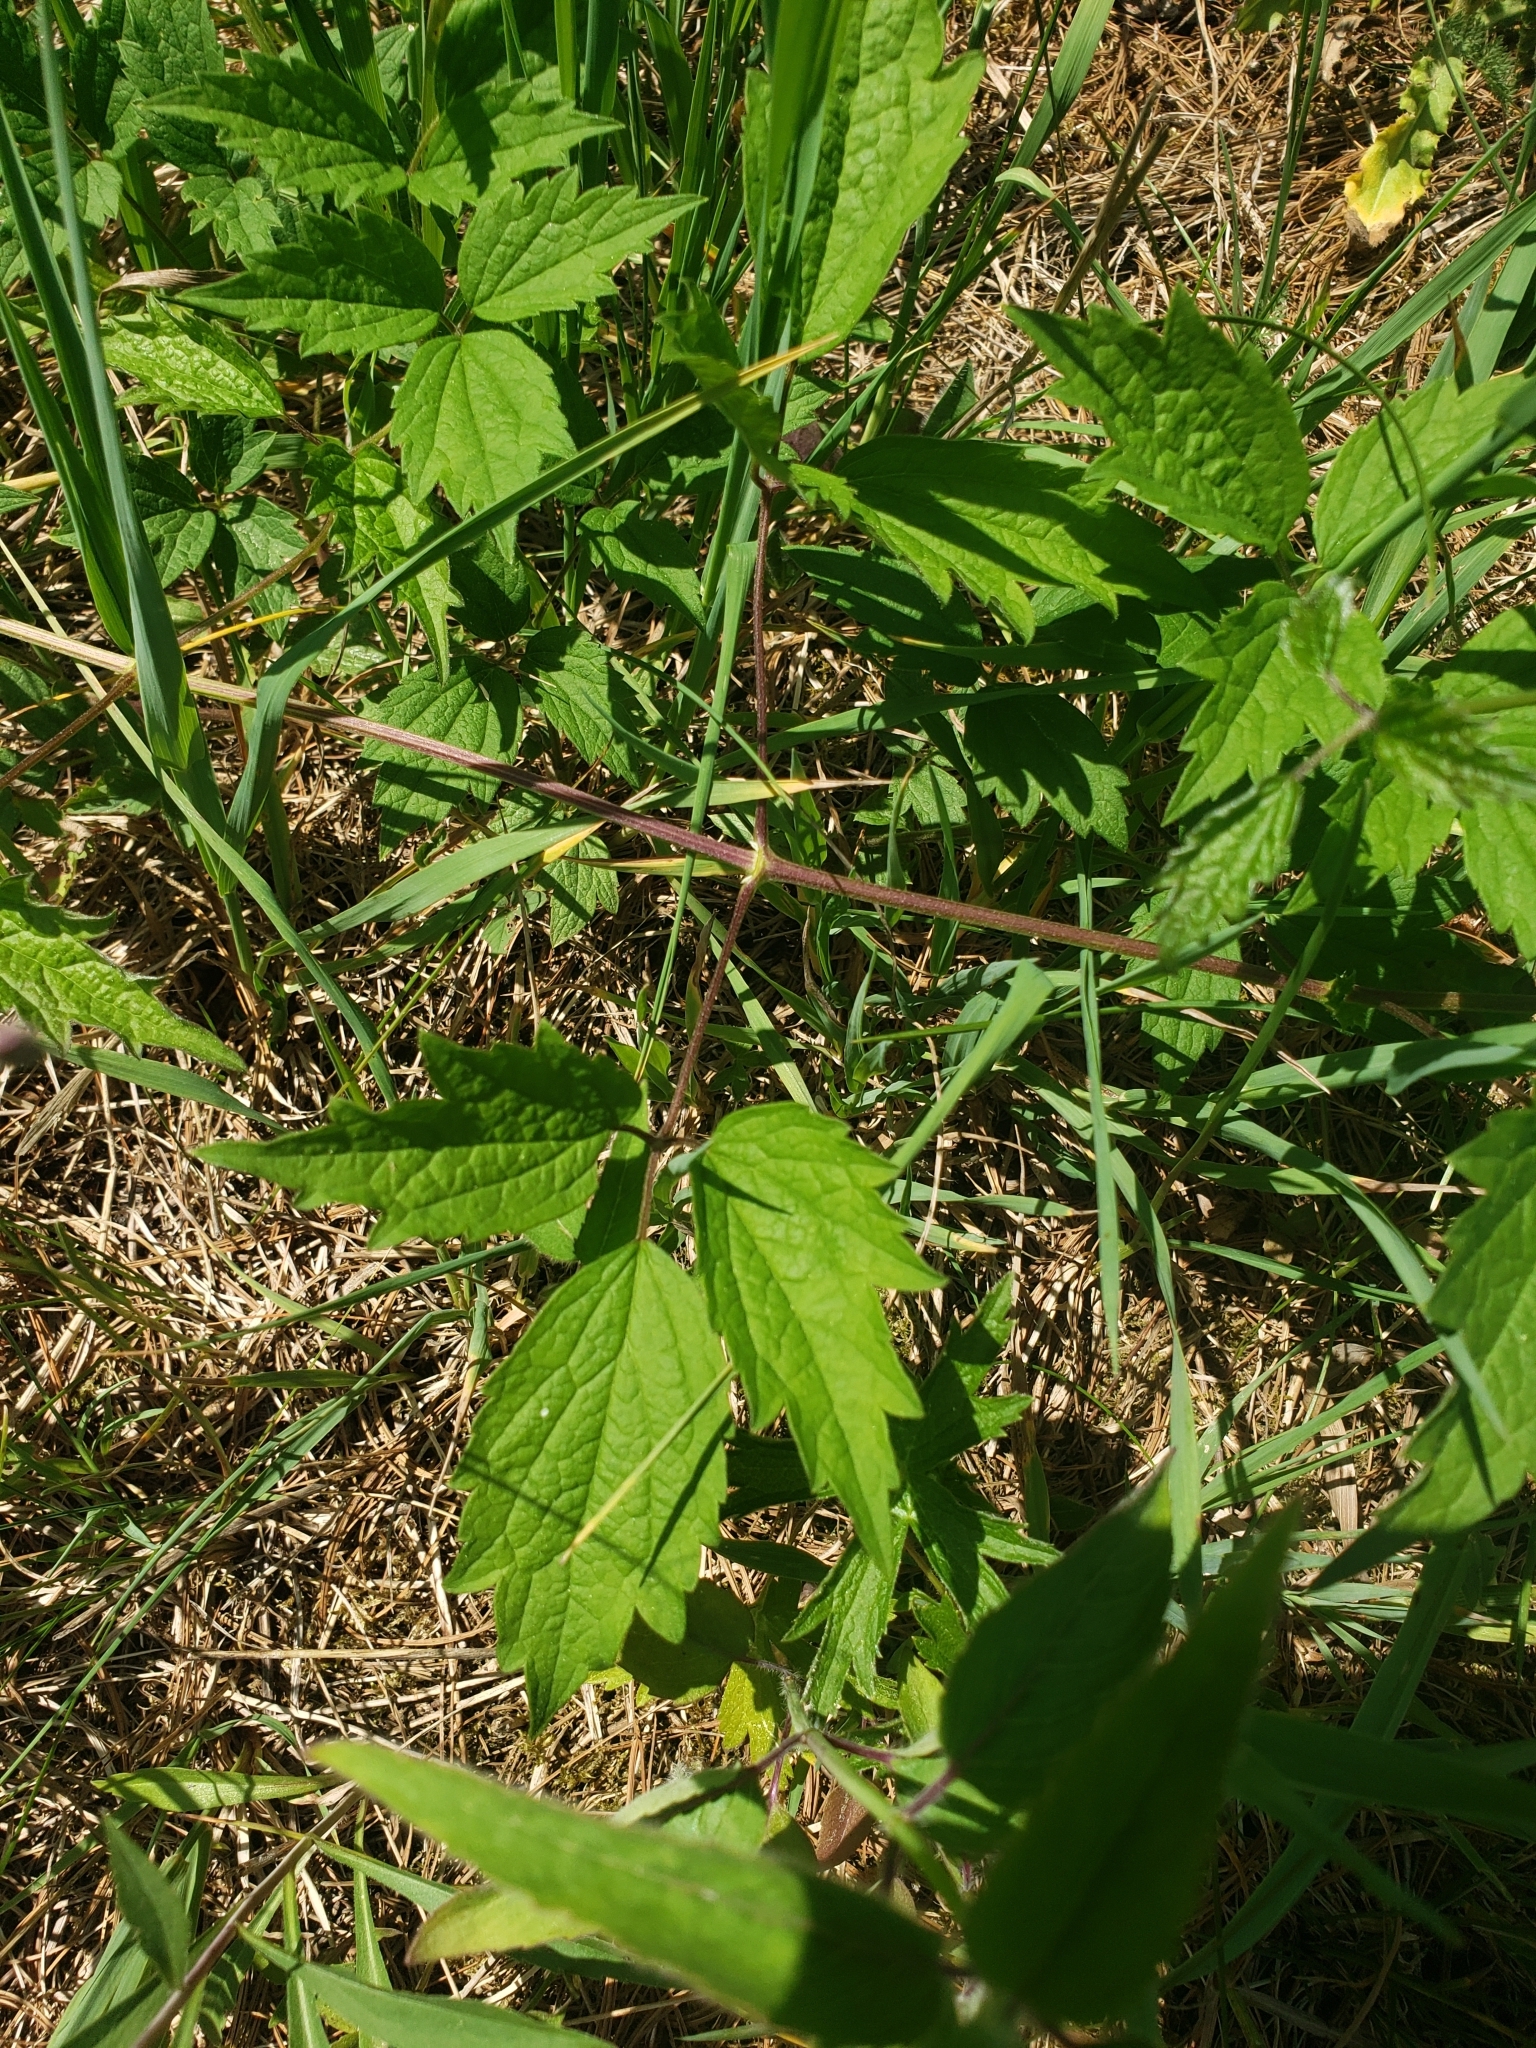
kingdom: Plantae
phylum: Tracheophyta
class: Magnoliopsida
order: Ranunculales
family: Ranunculaceae
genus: Clematis
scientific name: Clematis virginiana
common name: Virgin's-bower
